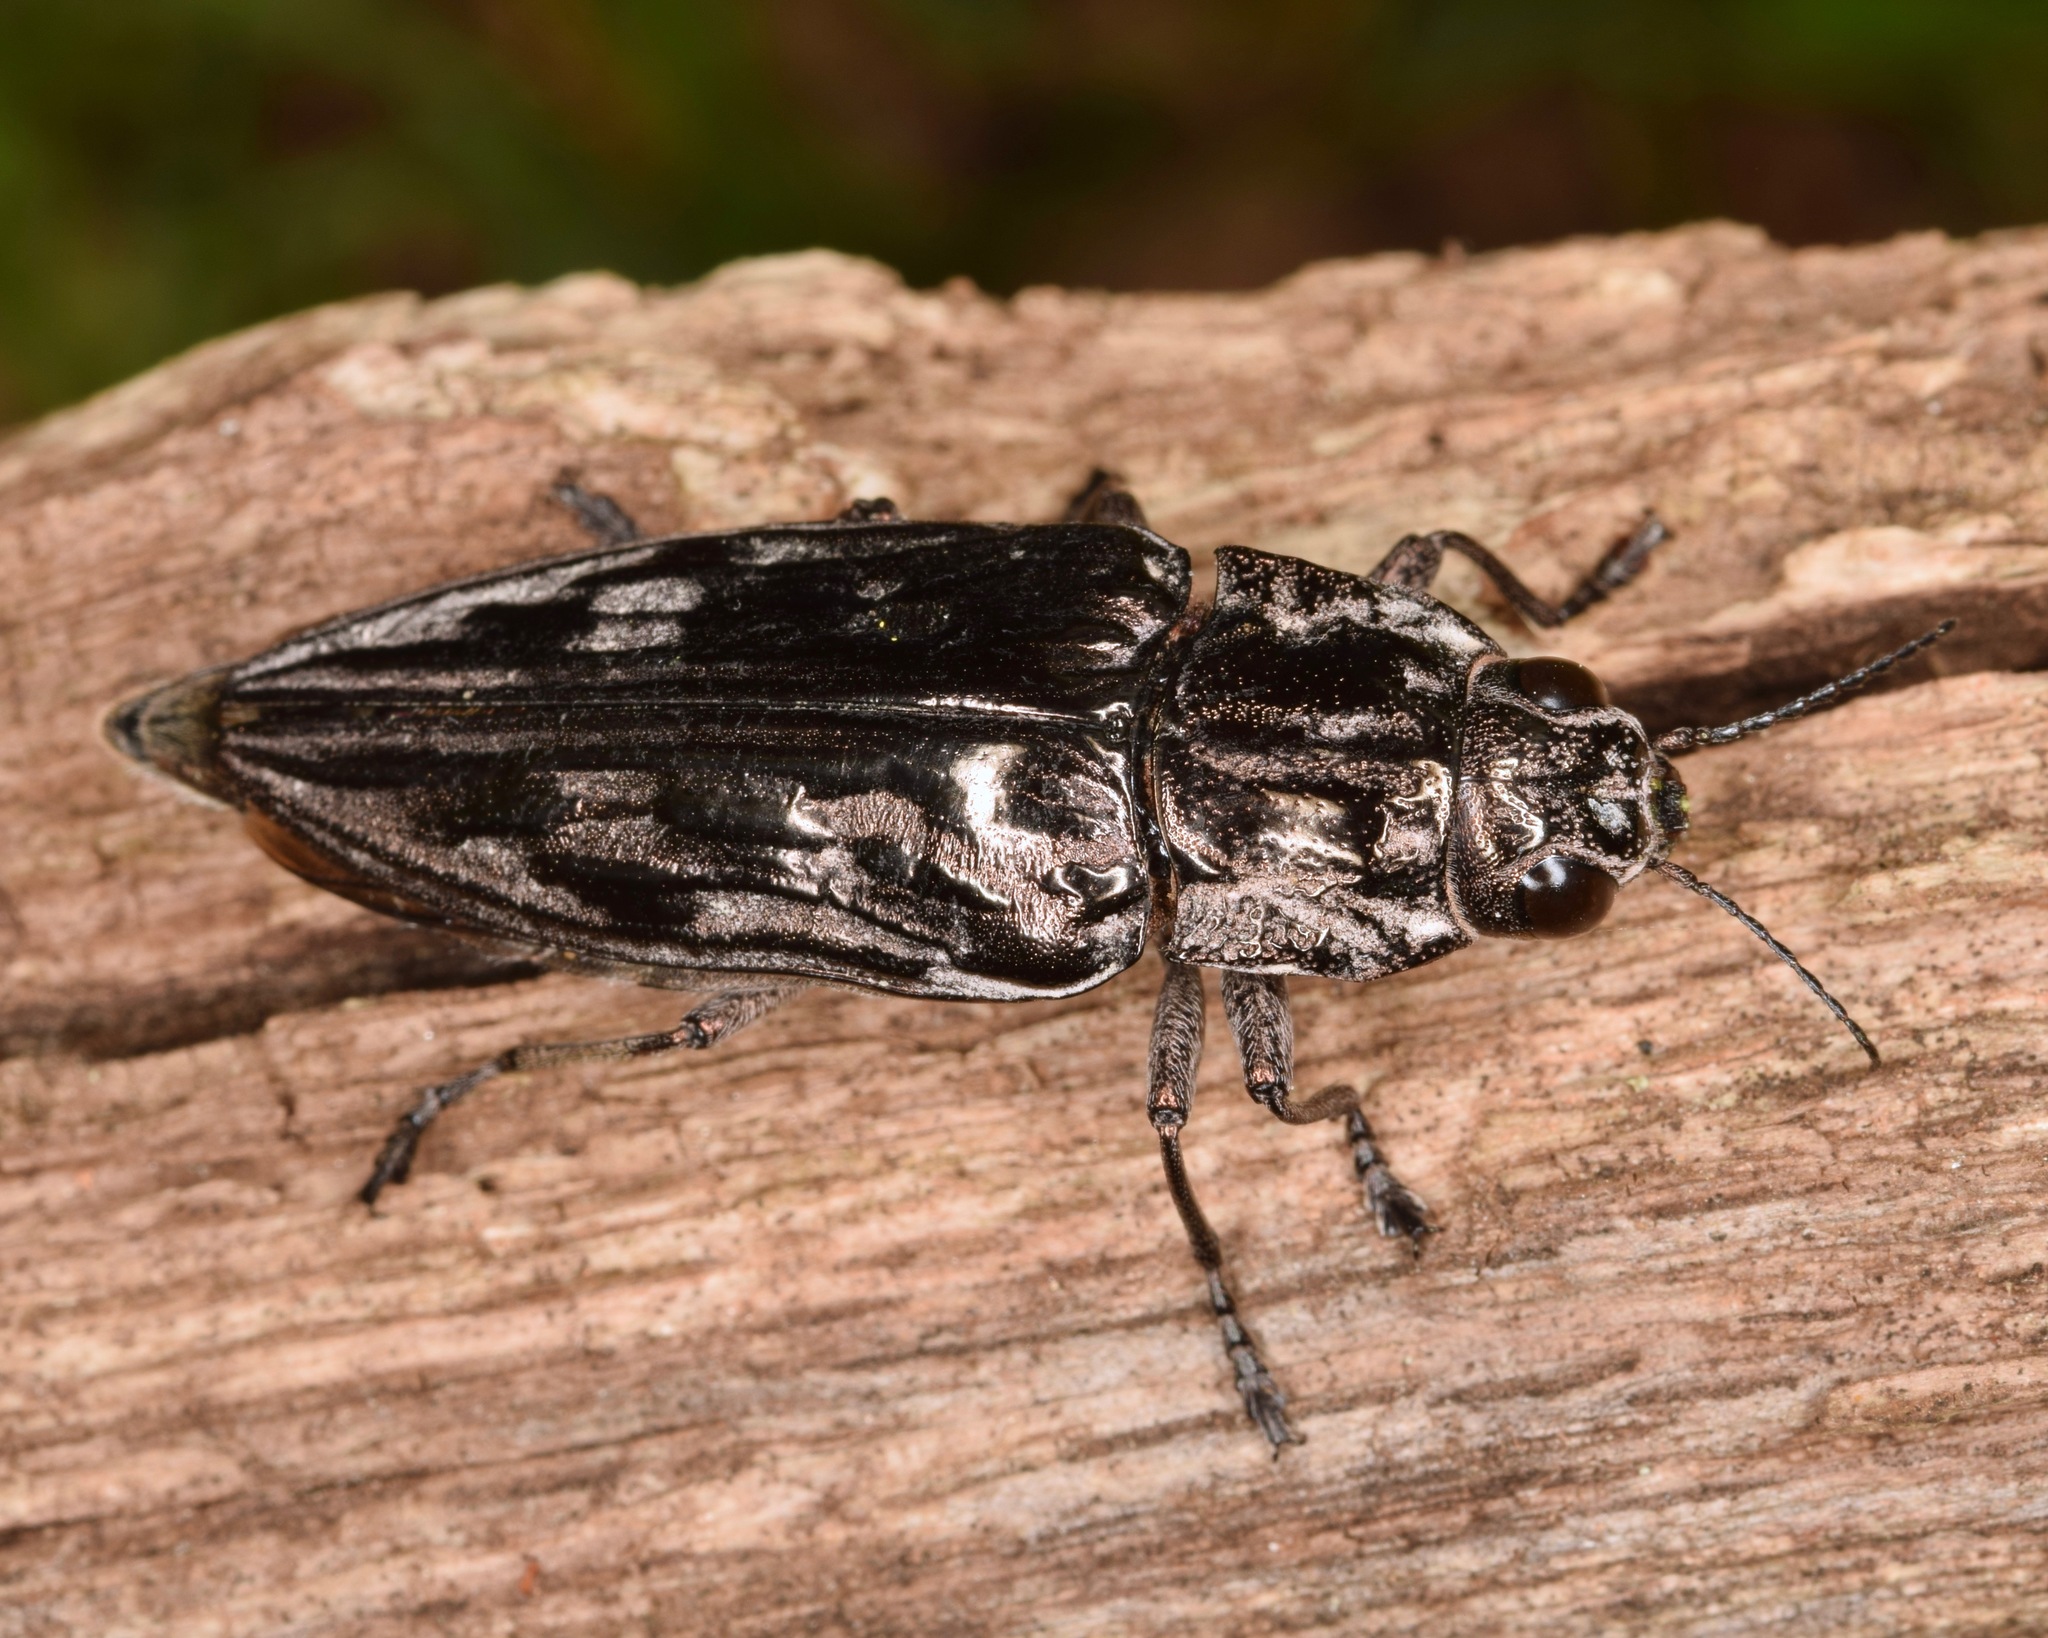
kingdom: Animalia
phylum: Arthropoda
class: Insecta
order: Coleoptera
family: Buprestidae
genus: Chalcophora
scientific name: Chalcophora virginiensis
